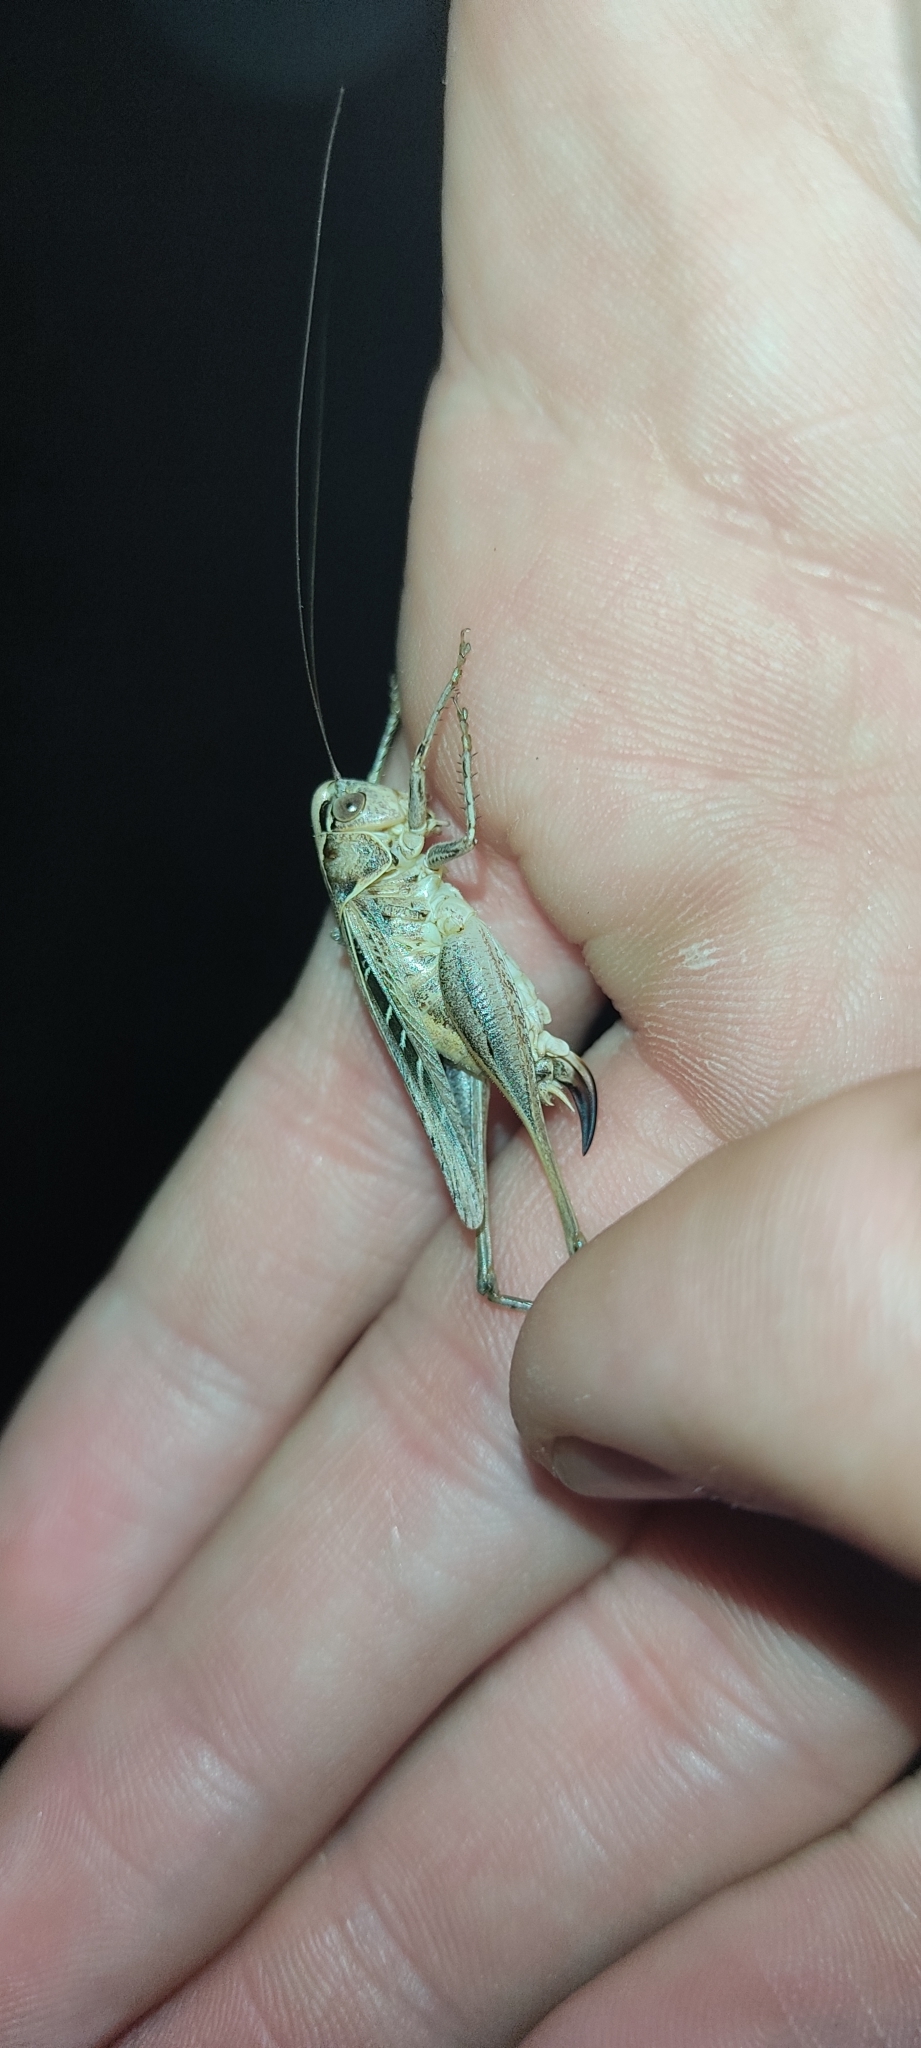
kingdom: Animalia
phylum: Arthropoda
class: Insecta
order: Orthoptera
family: Tettigoniidae
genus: Tessellana
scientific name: Tessellana tessellata
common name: Grasshopper
